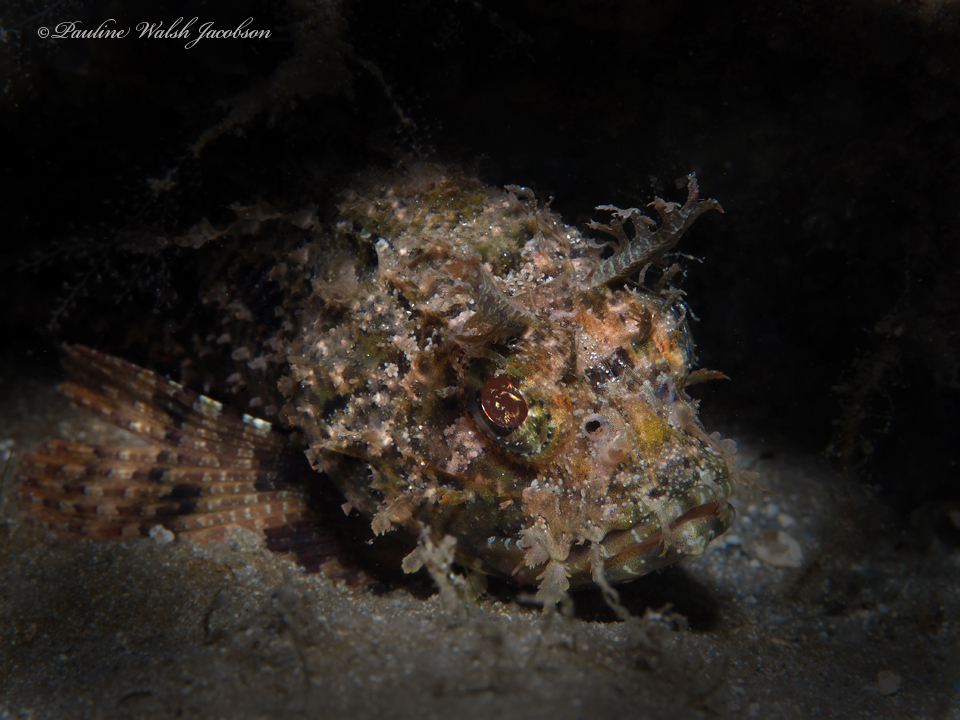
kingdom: Animalia
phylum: Chordata
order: Scorpaeniformes
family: Scorpaenidae
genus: Scorpaena
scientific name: Scorpaena brasiliensis
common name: Barbfish
